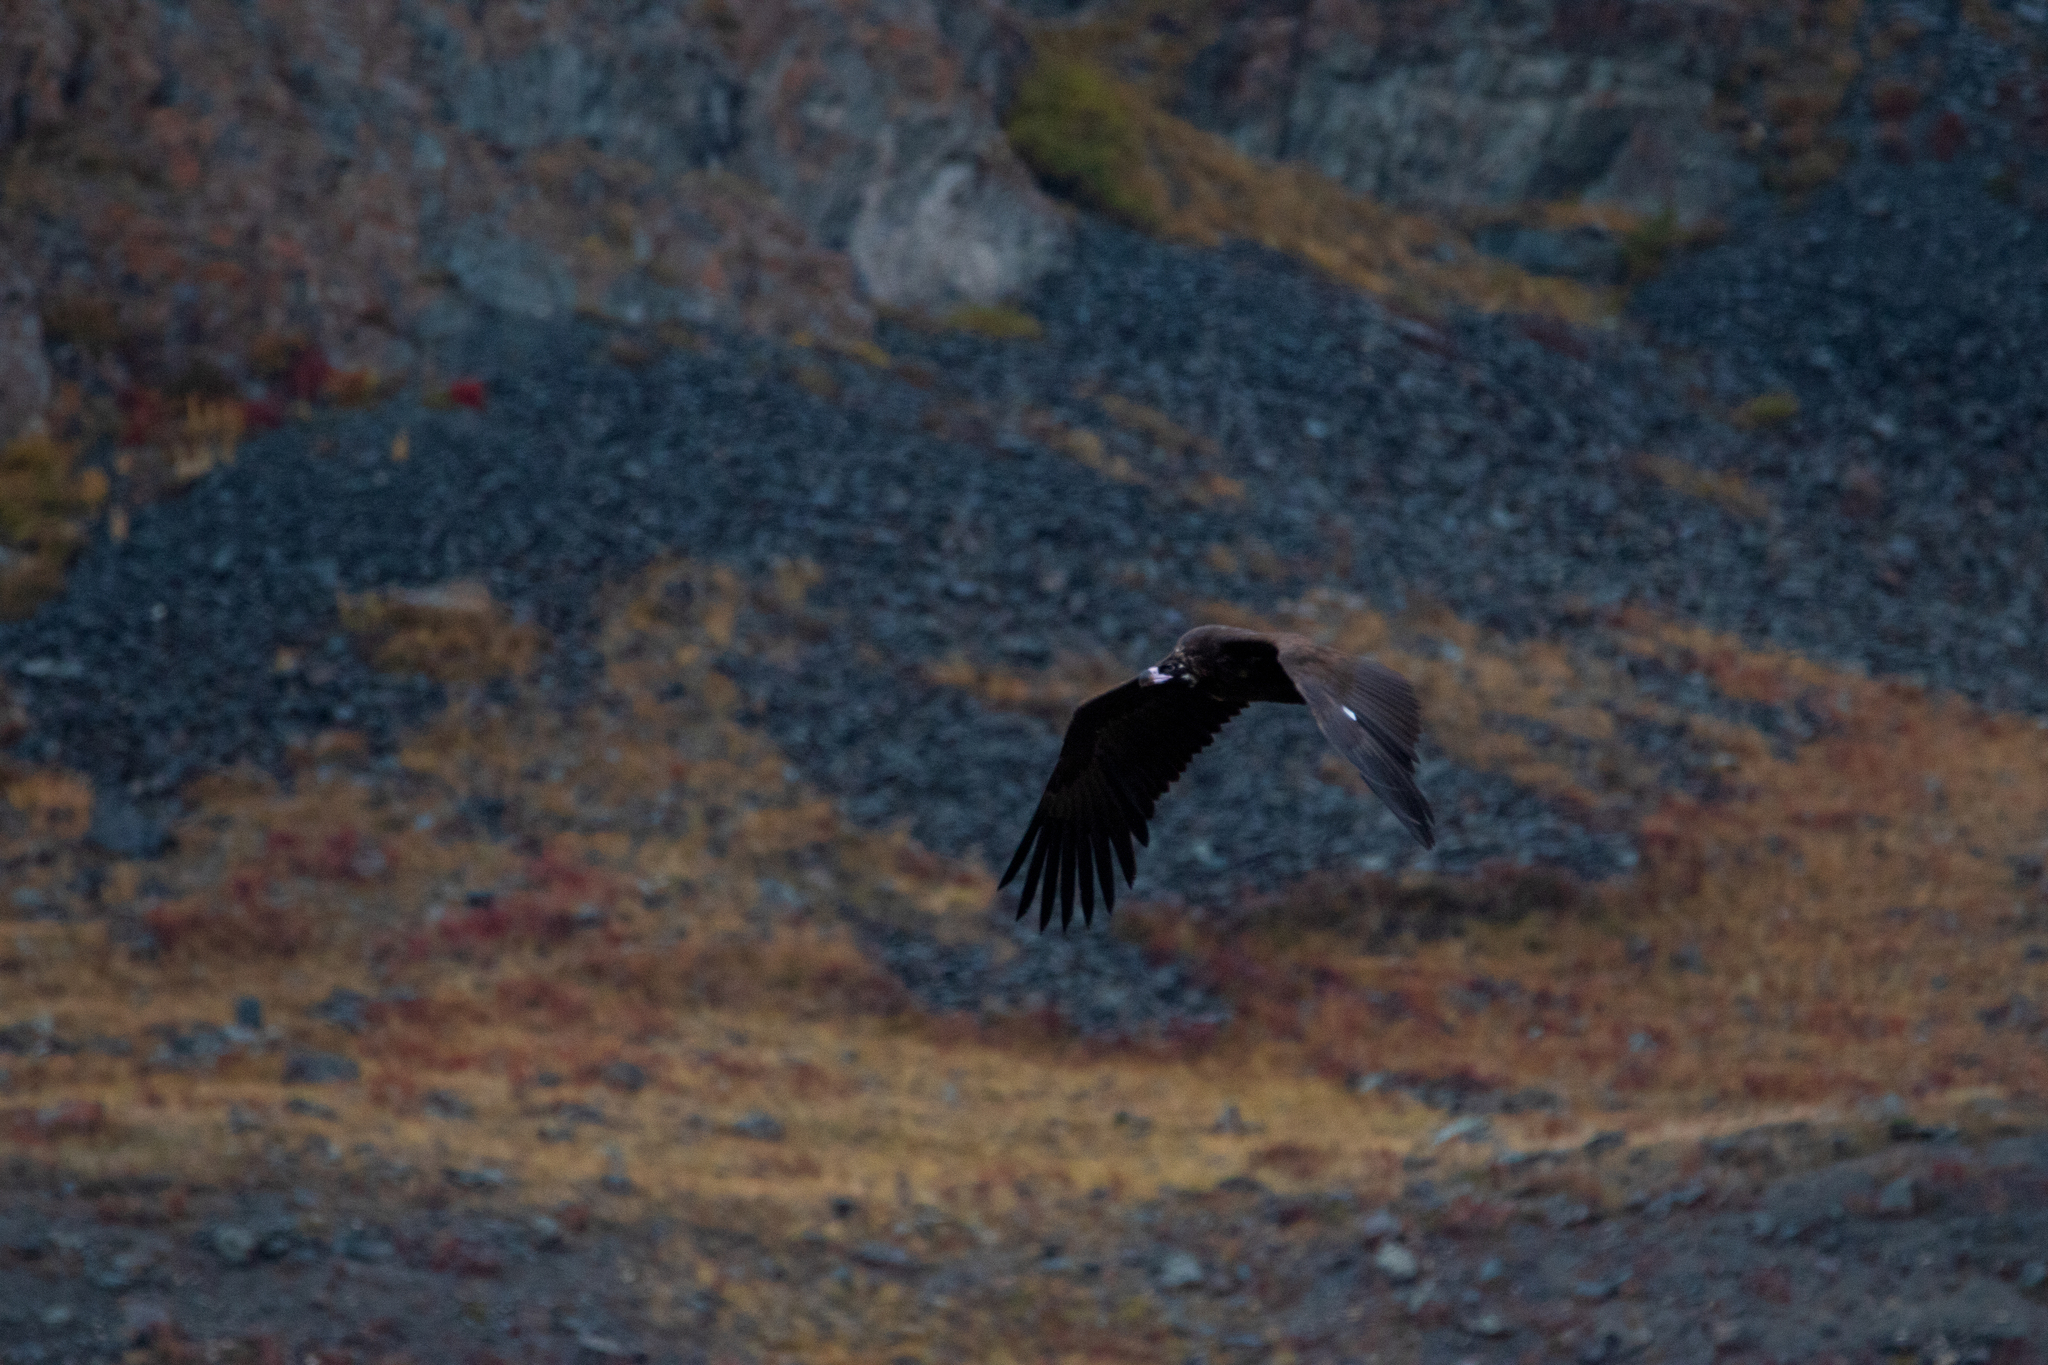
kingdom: Animalia
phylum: Chordata
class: Aves
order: Accipitriformes
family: Accipitridae
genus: Aegypius
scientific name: Aegypius monachus
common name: Cinereous vulture
